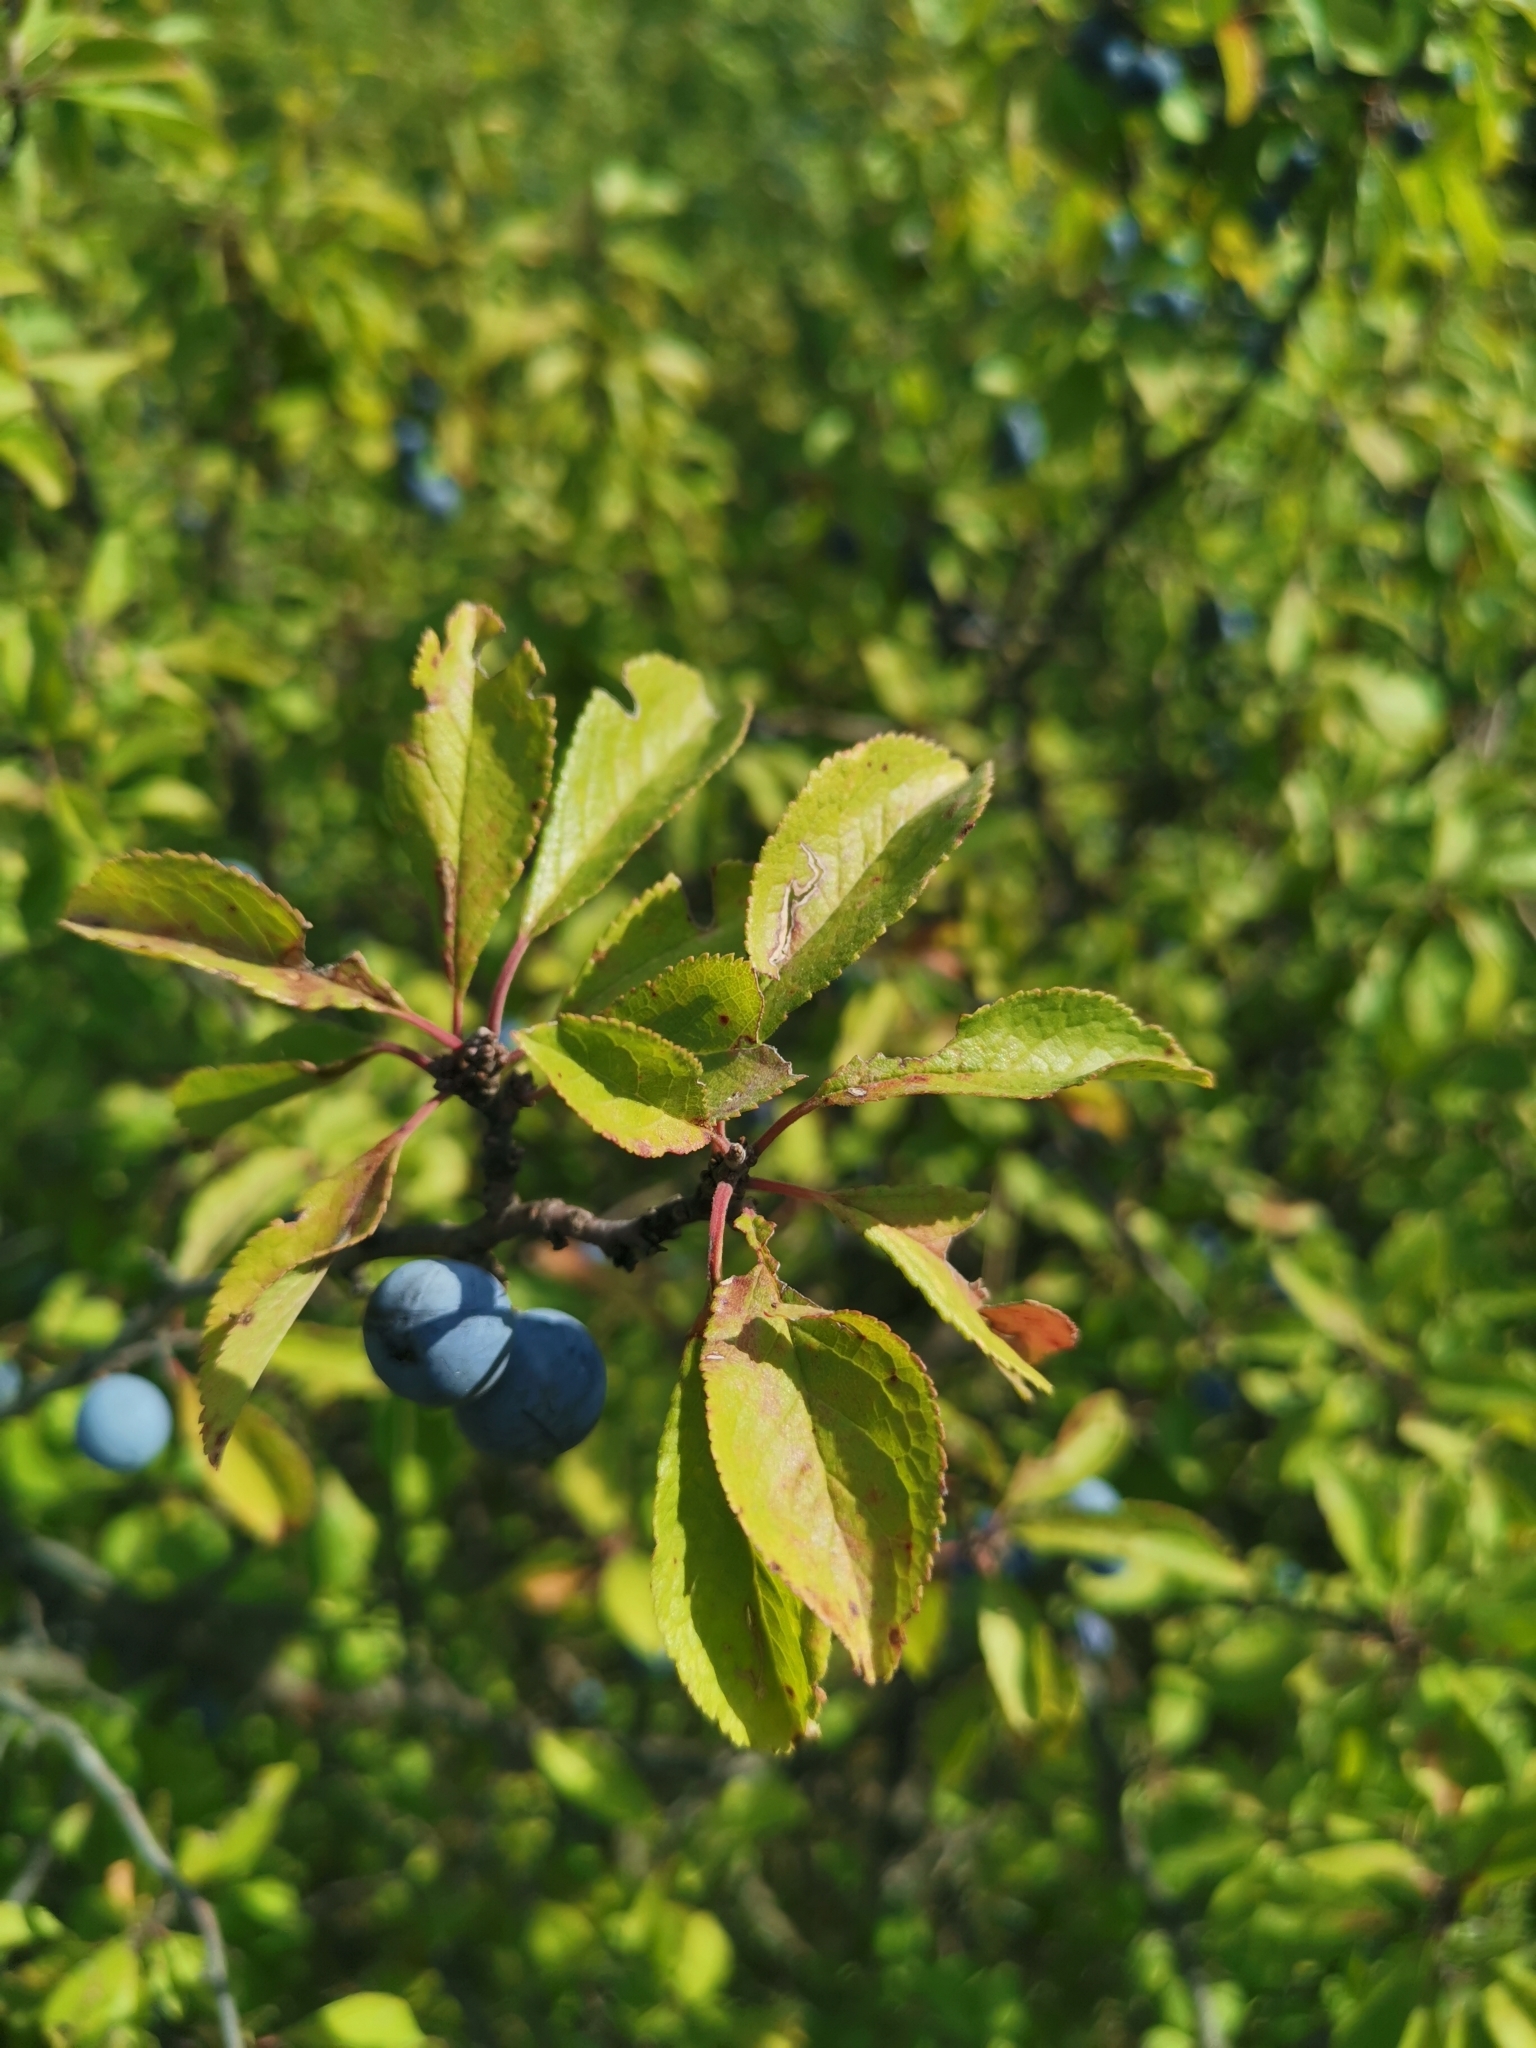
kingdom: Plantae
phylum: Tracheophyta
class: Magnoliopsida
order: Rosales
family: Rosaceae
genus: Prunus
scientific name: Prunus spinosa
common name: Blackthorn
